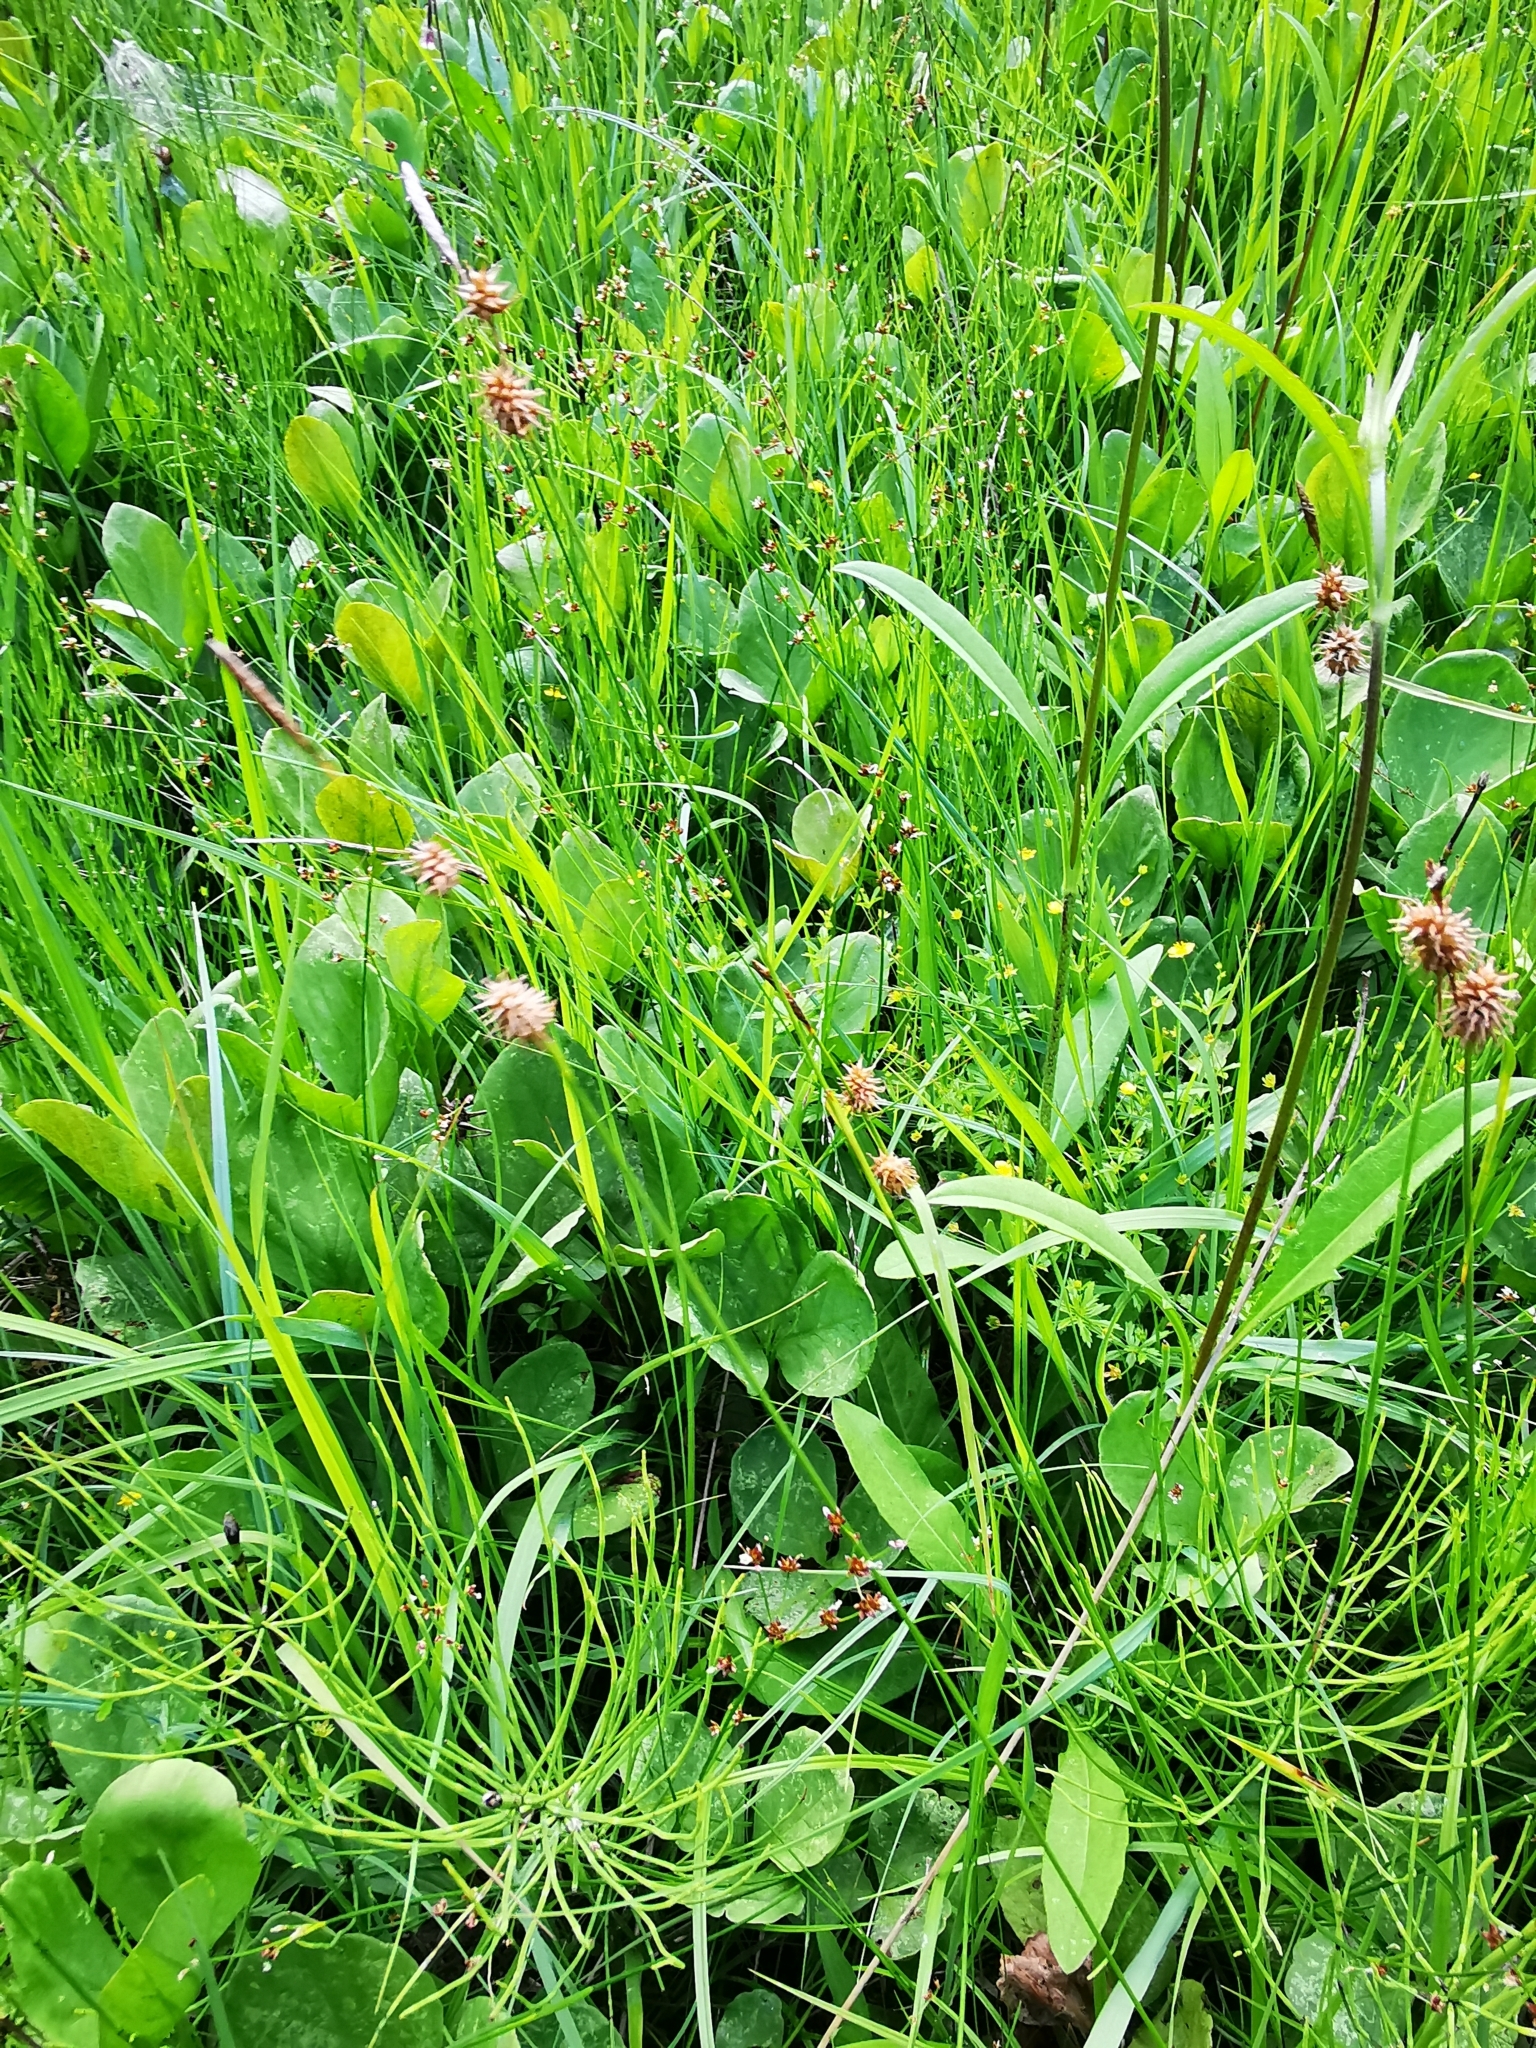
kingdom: Plantae
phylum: Tracheophyta
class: Liliopsida
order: Poales
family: Cyperaceae
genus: Carex
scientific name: Carex lepidocarpa
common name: Long-stalked yellow-sedge
